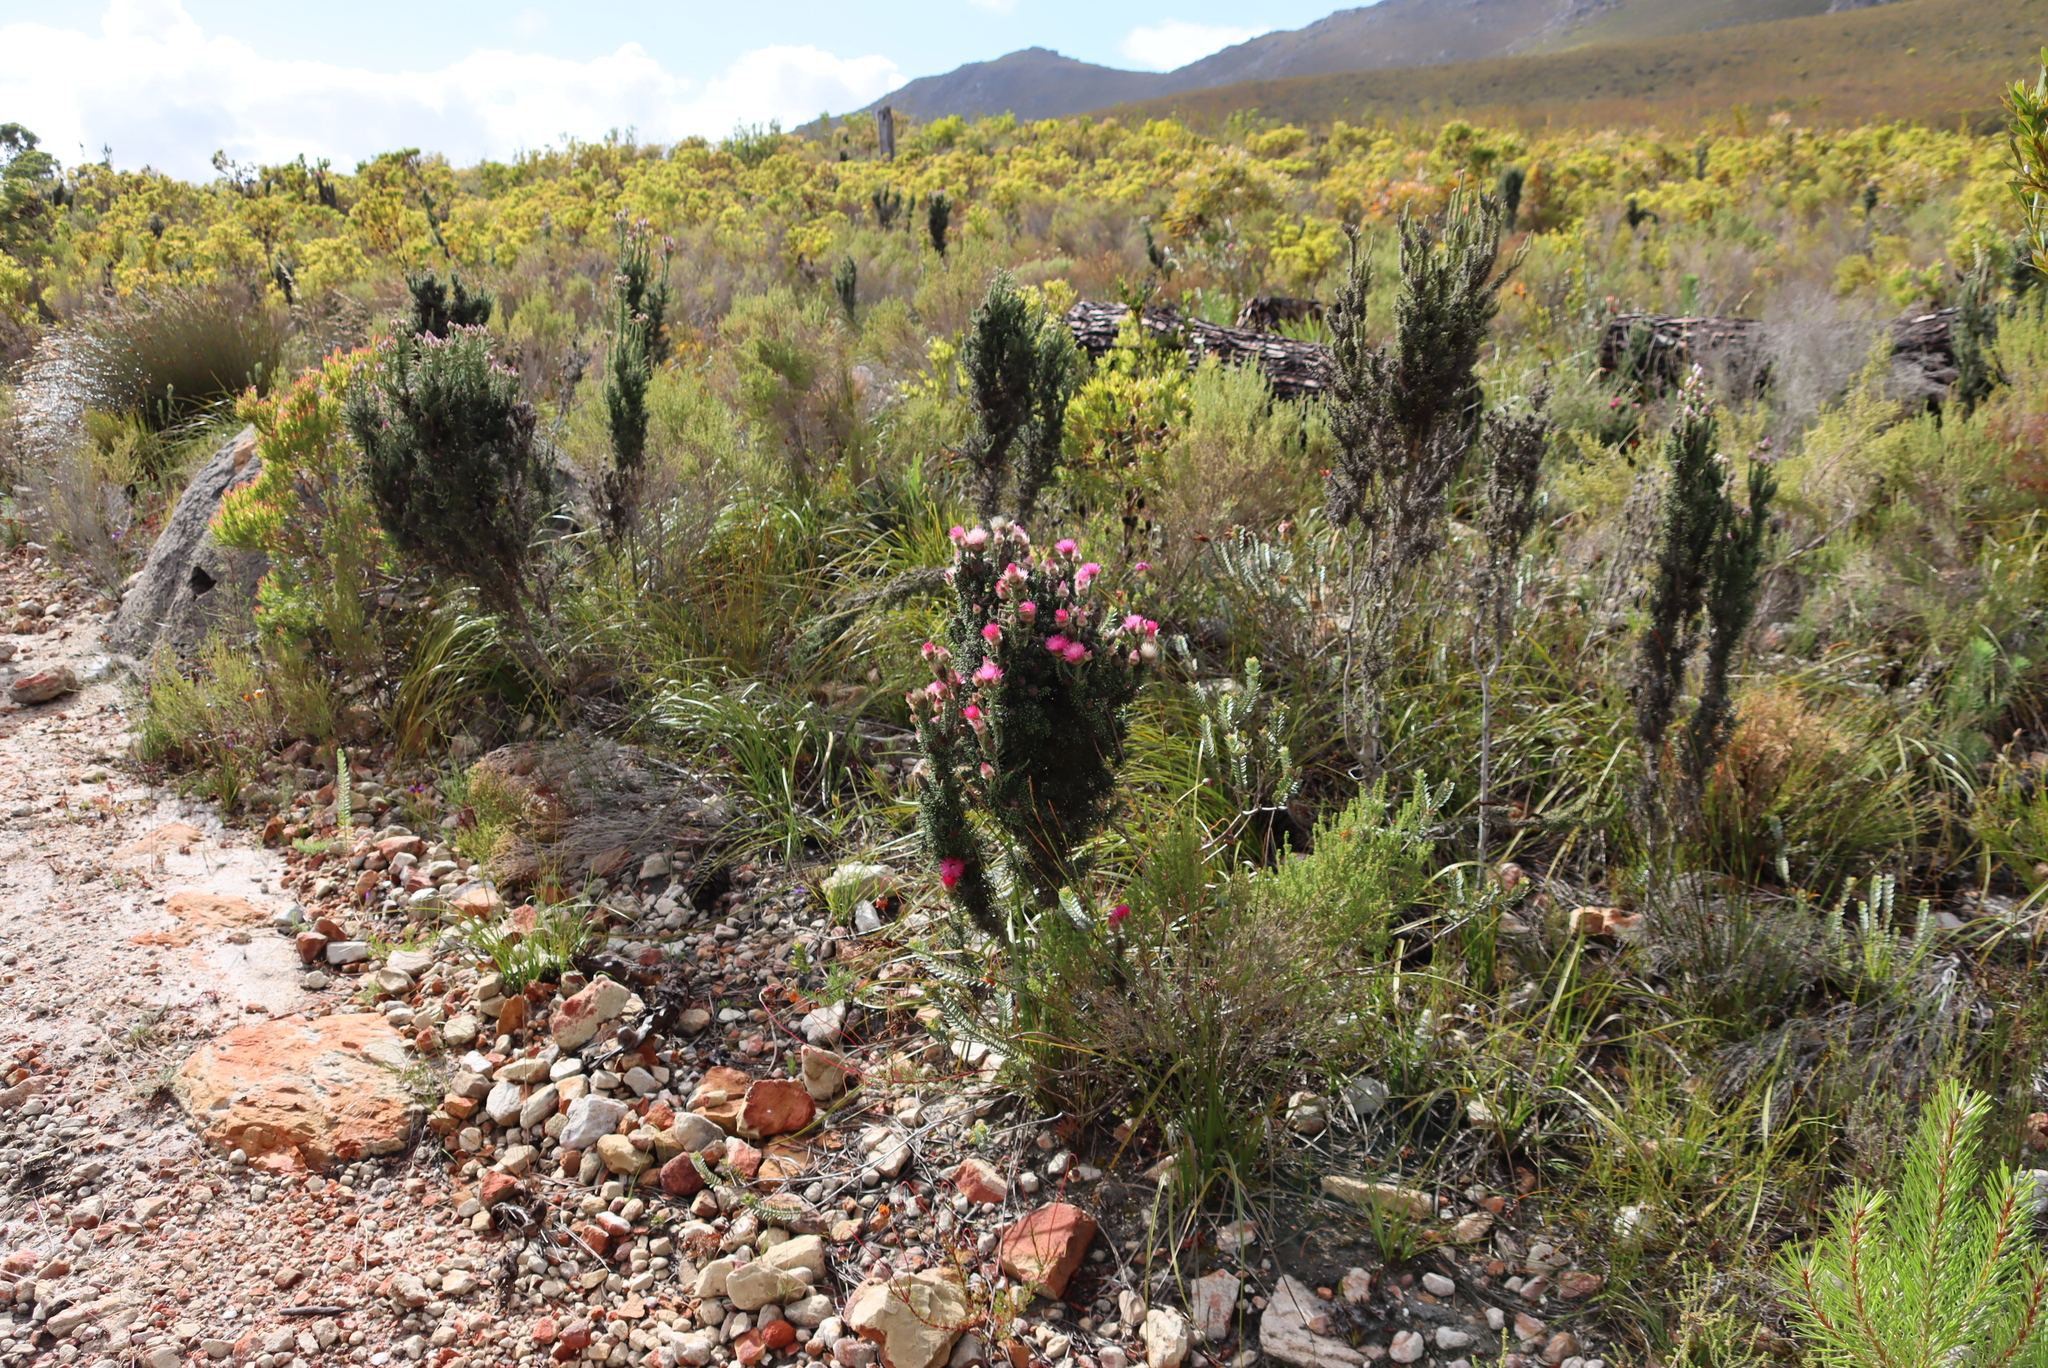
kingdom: Plantae
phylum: Tracheophyta
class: Magnoliopsida
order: Asterales
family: Asteraceae
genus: Phaenocoma
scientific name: Phaenocoma prolifera
